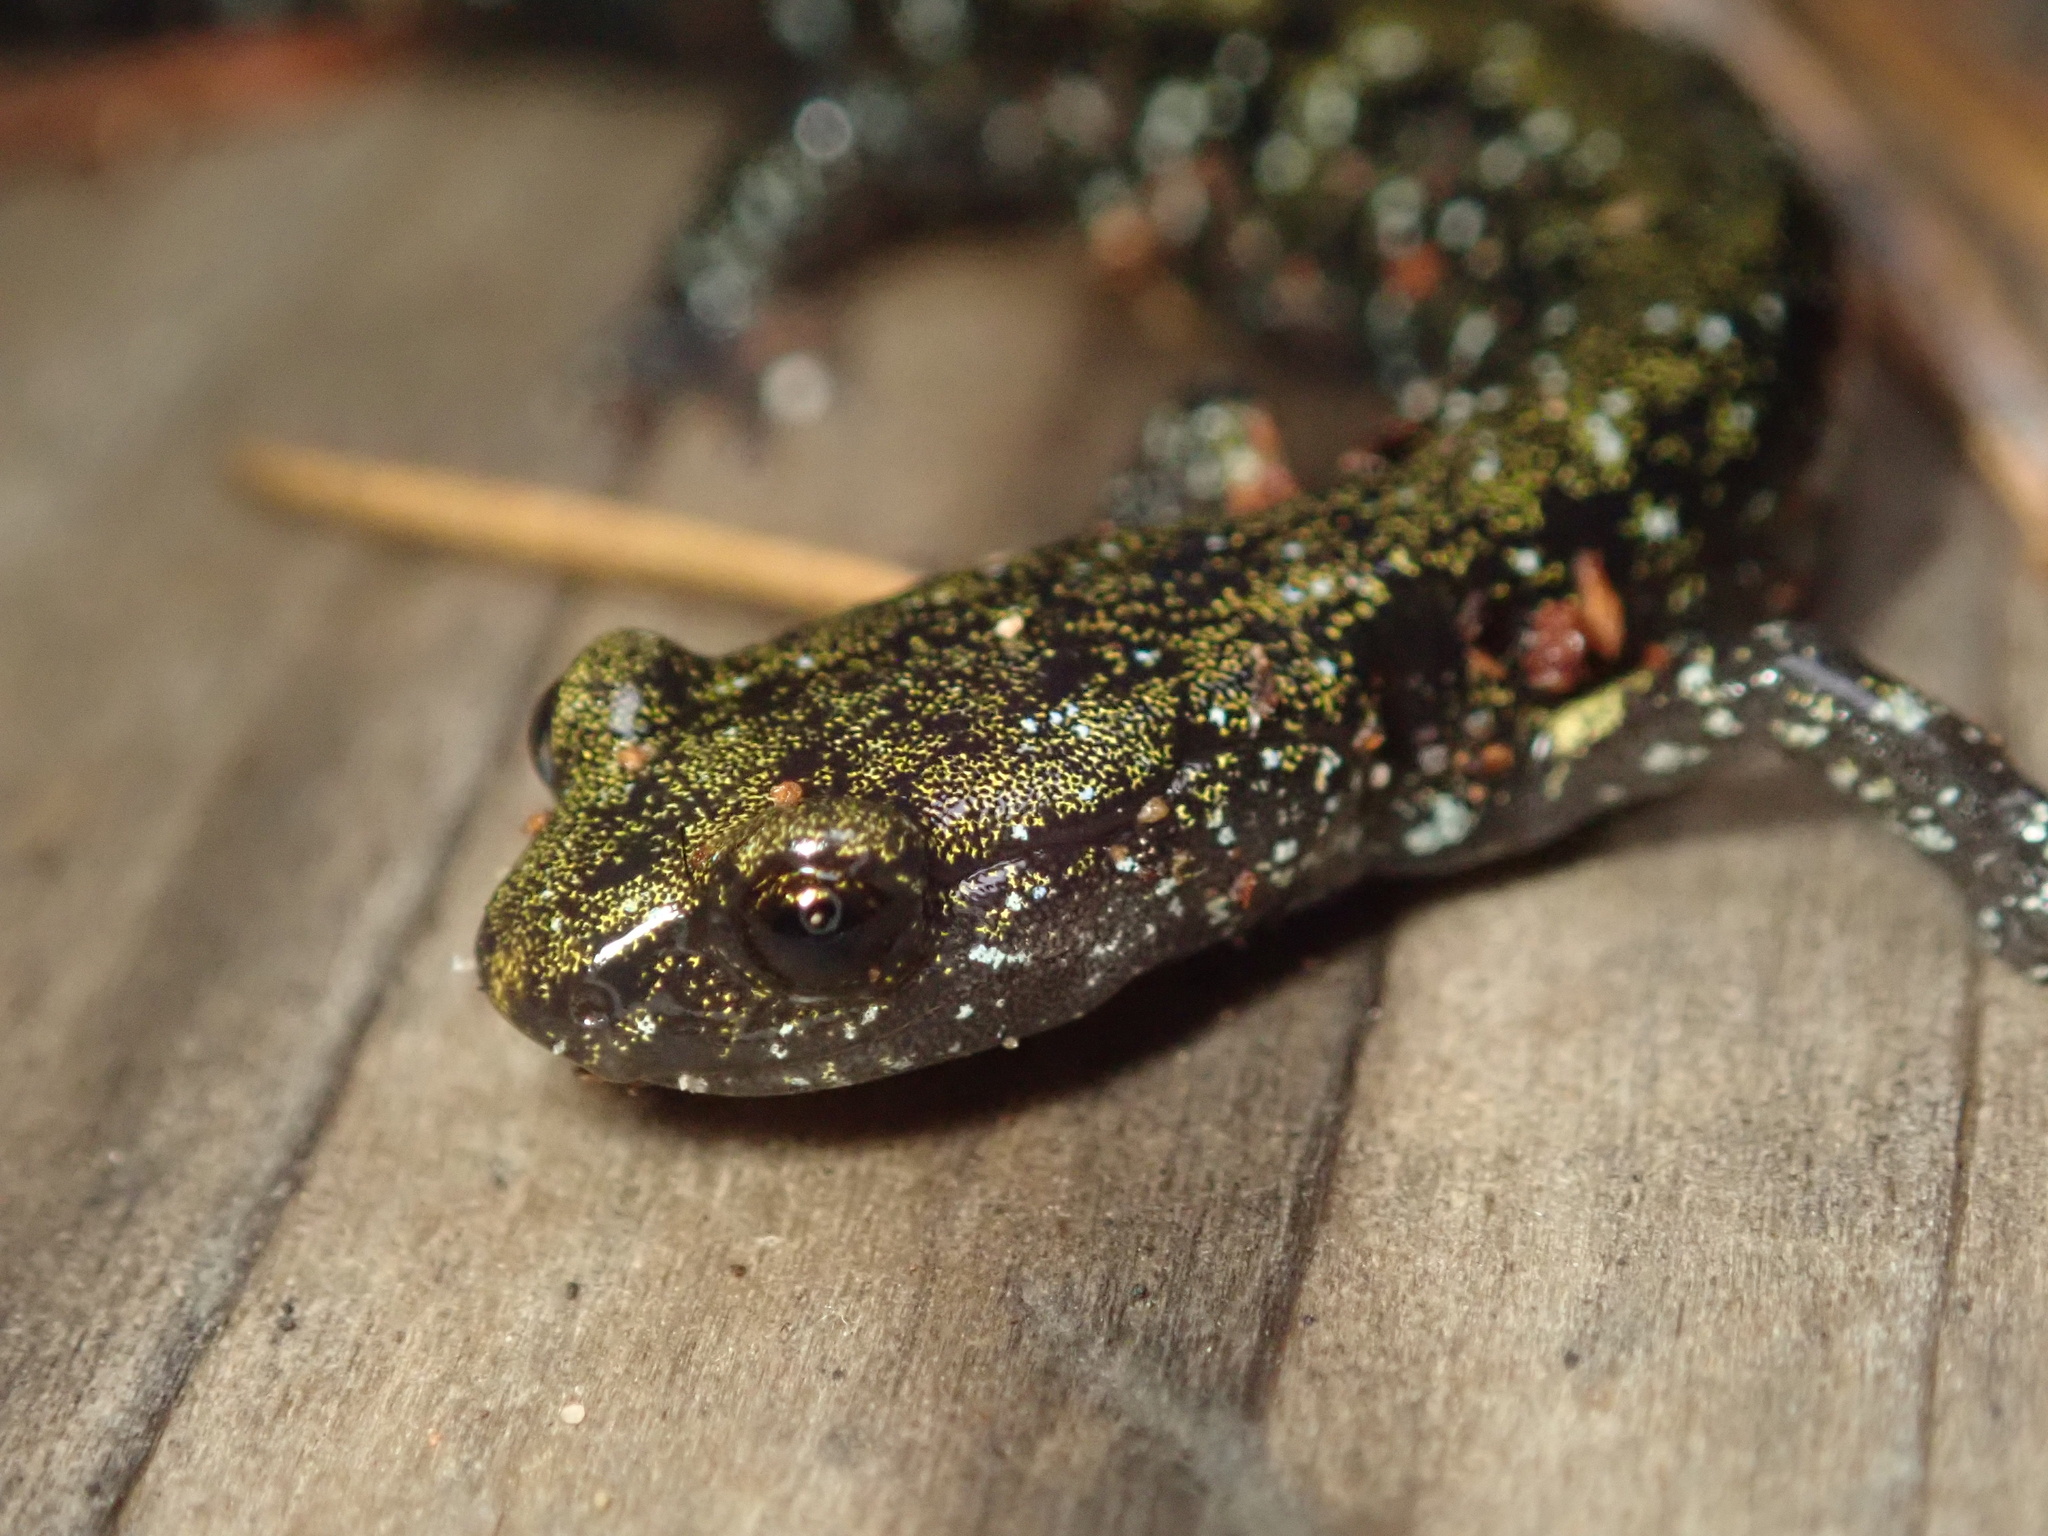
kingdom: Animalia
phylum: Chordata
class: Amphibia
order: Caudata
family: Plethodontidae
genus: Aneides
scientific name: Aneides flavipunctatus
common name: Black salamander
